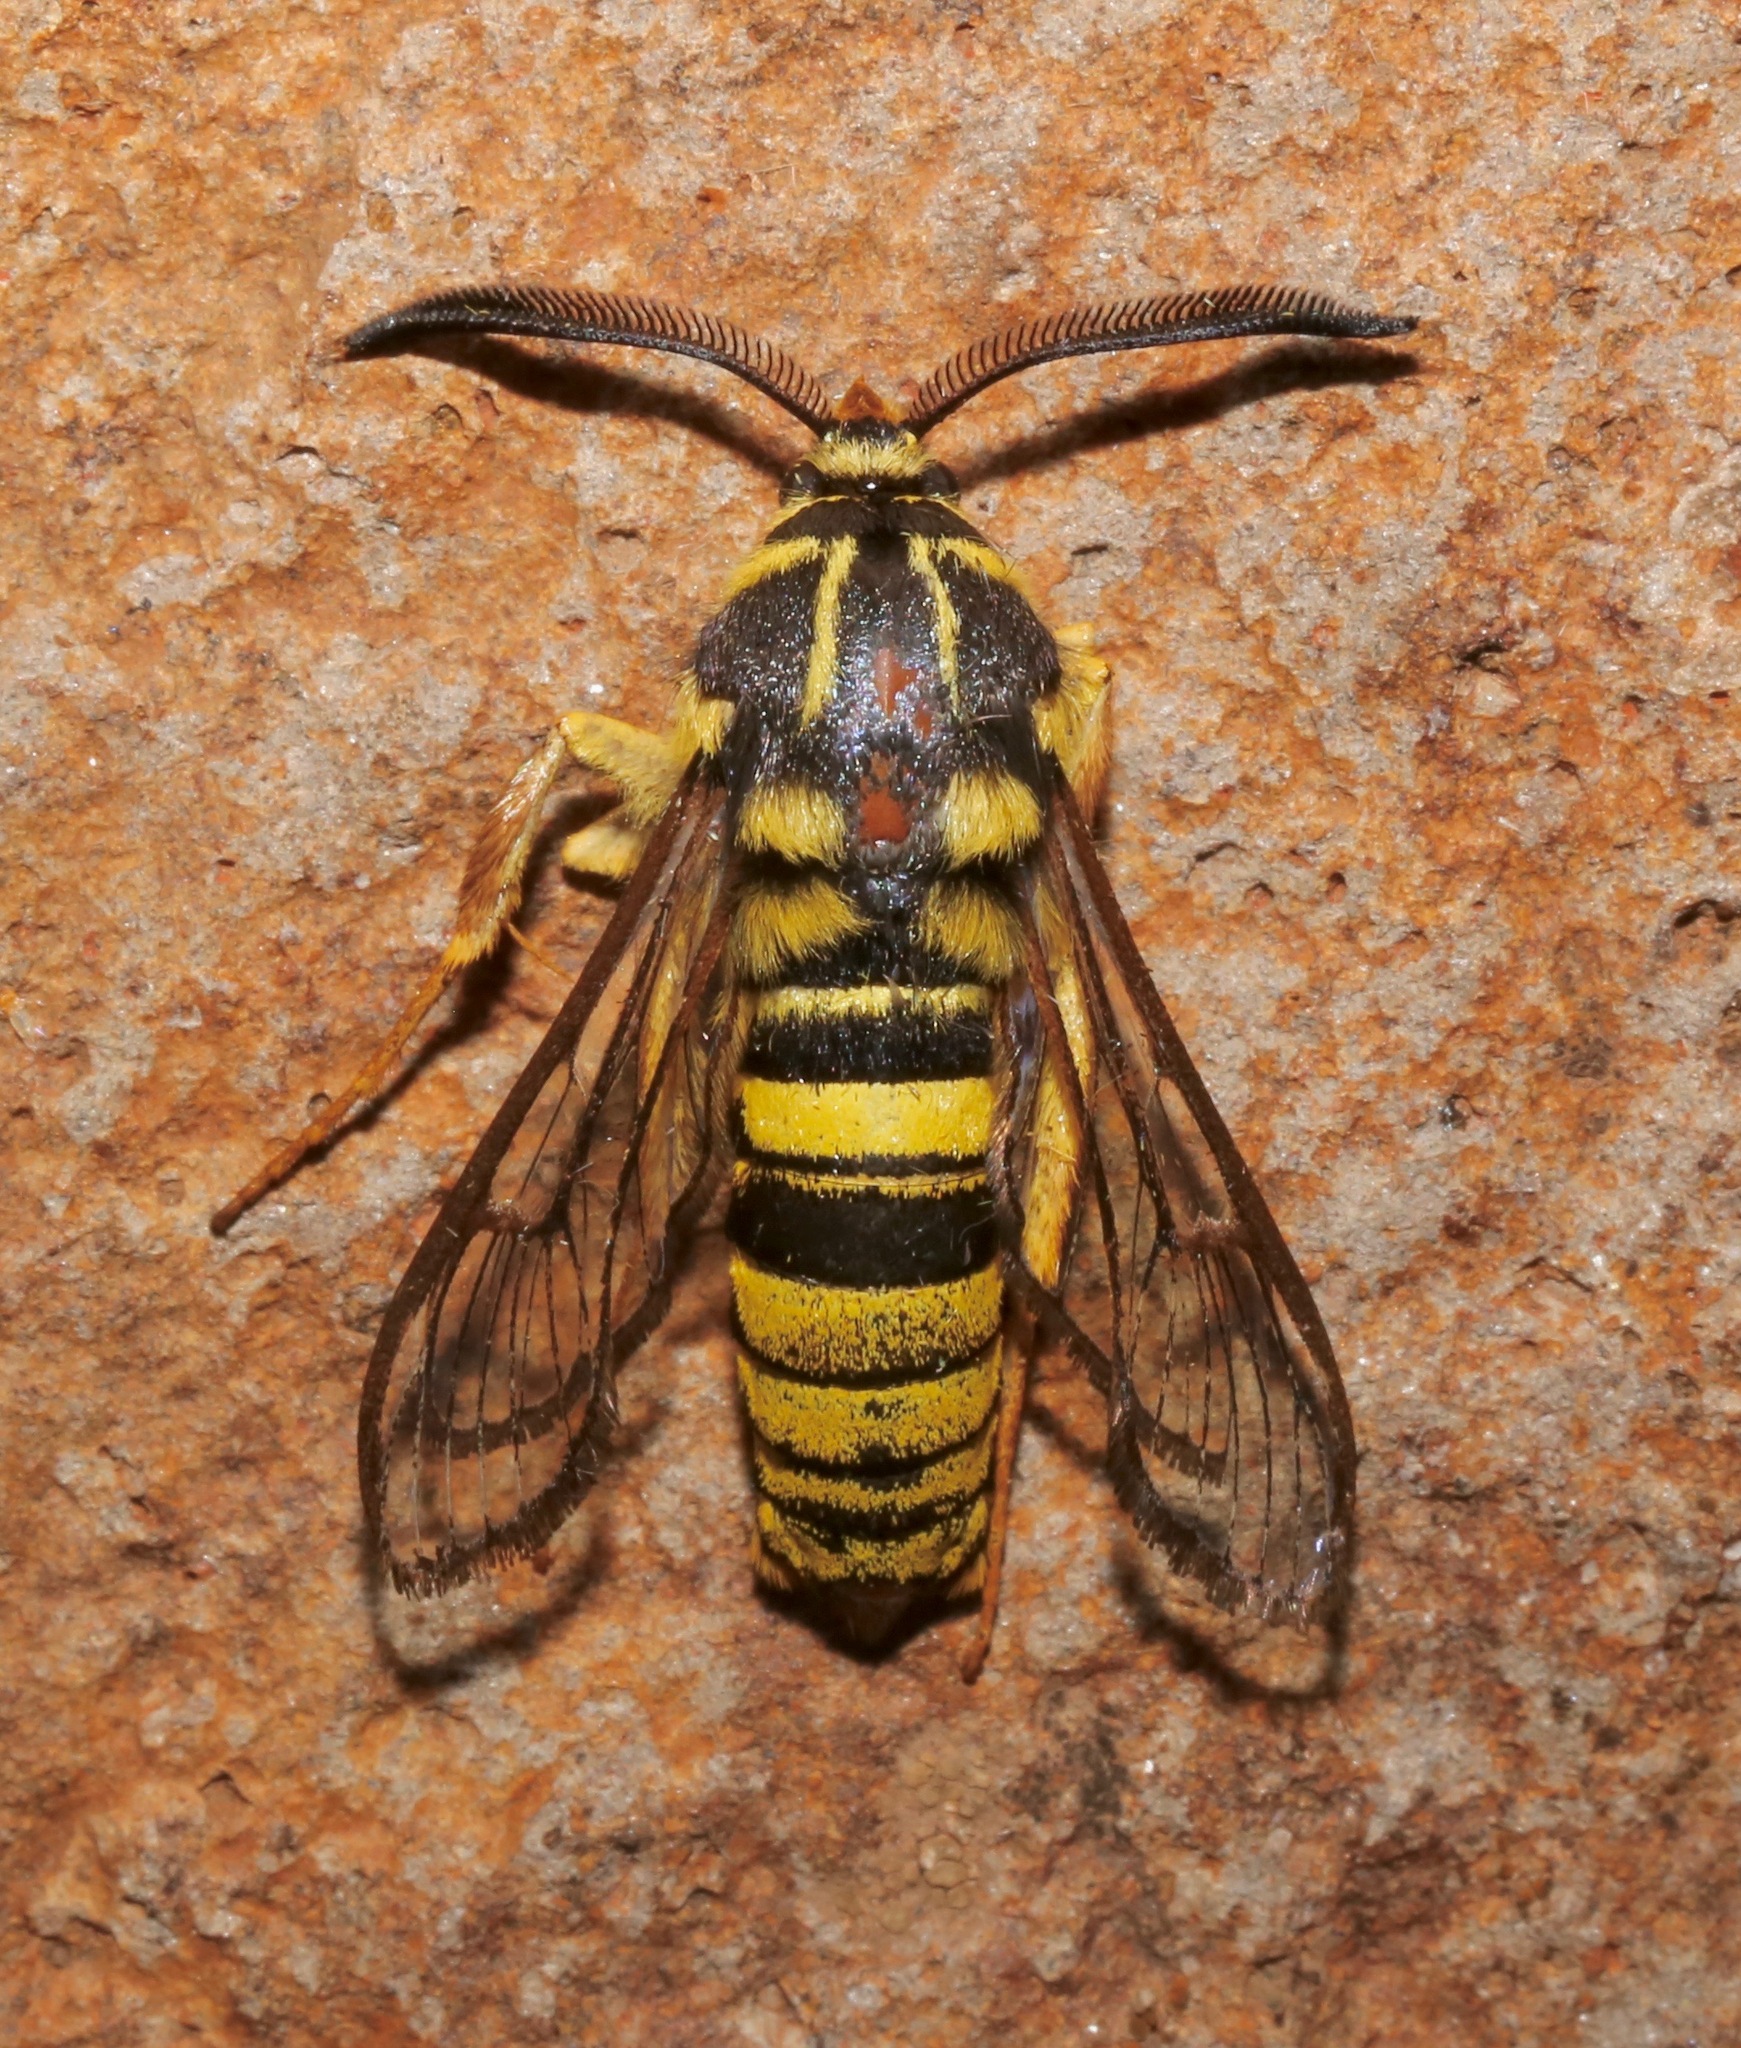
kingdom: Animalia
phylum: Arthropoda
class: Insecta
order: Lepidoptera
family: Sesiidae
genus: Sesia
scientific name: Sesia tibiale
